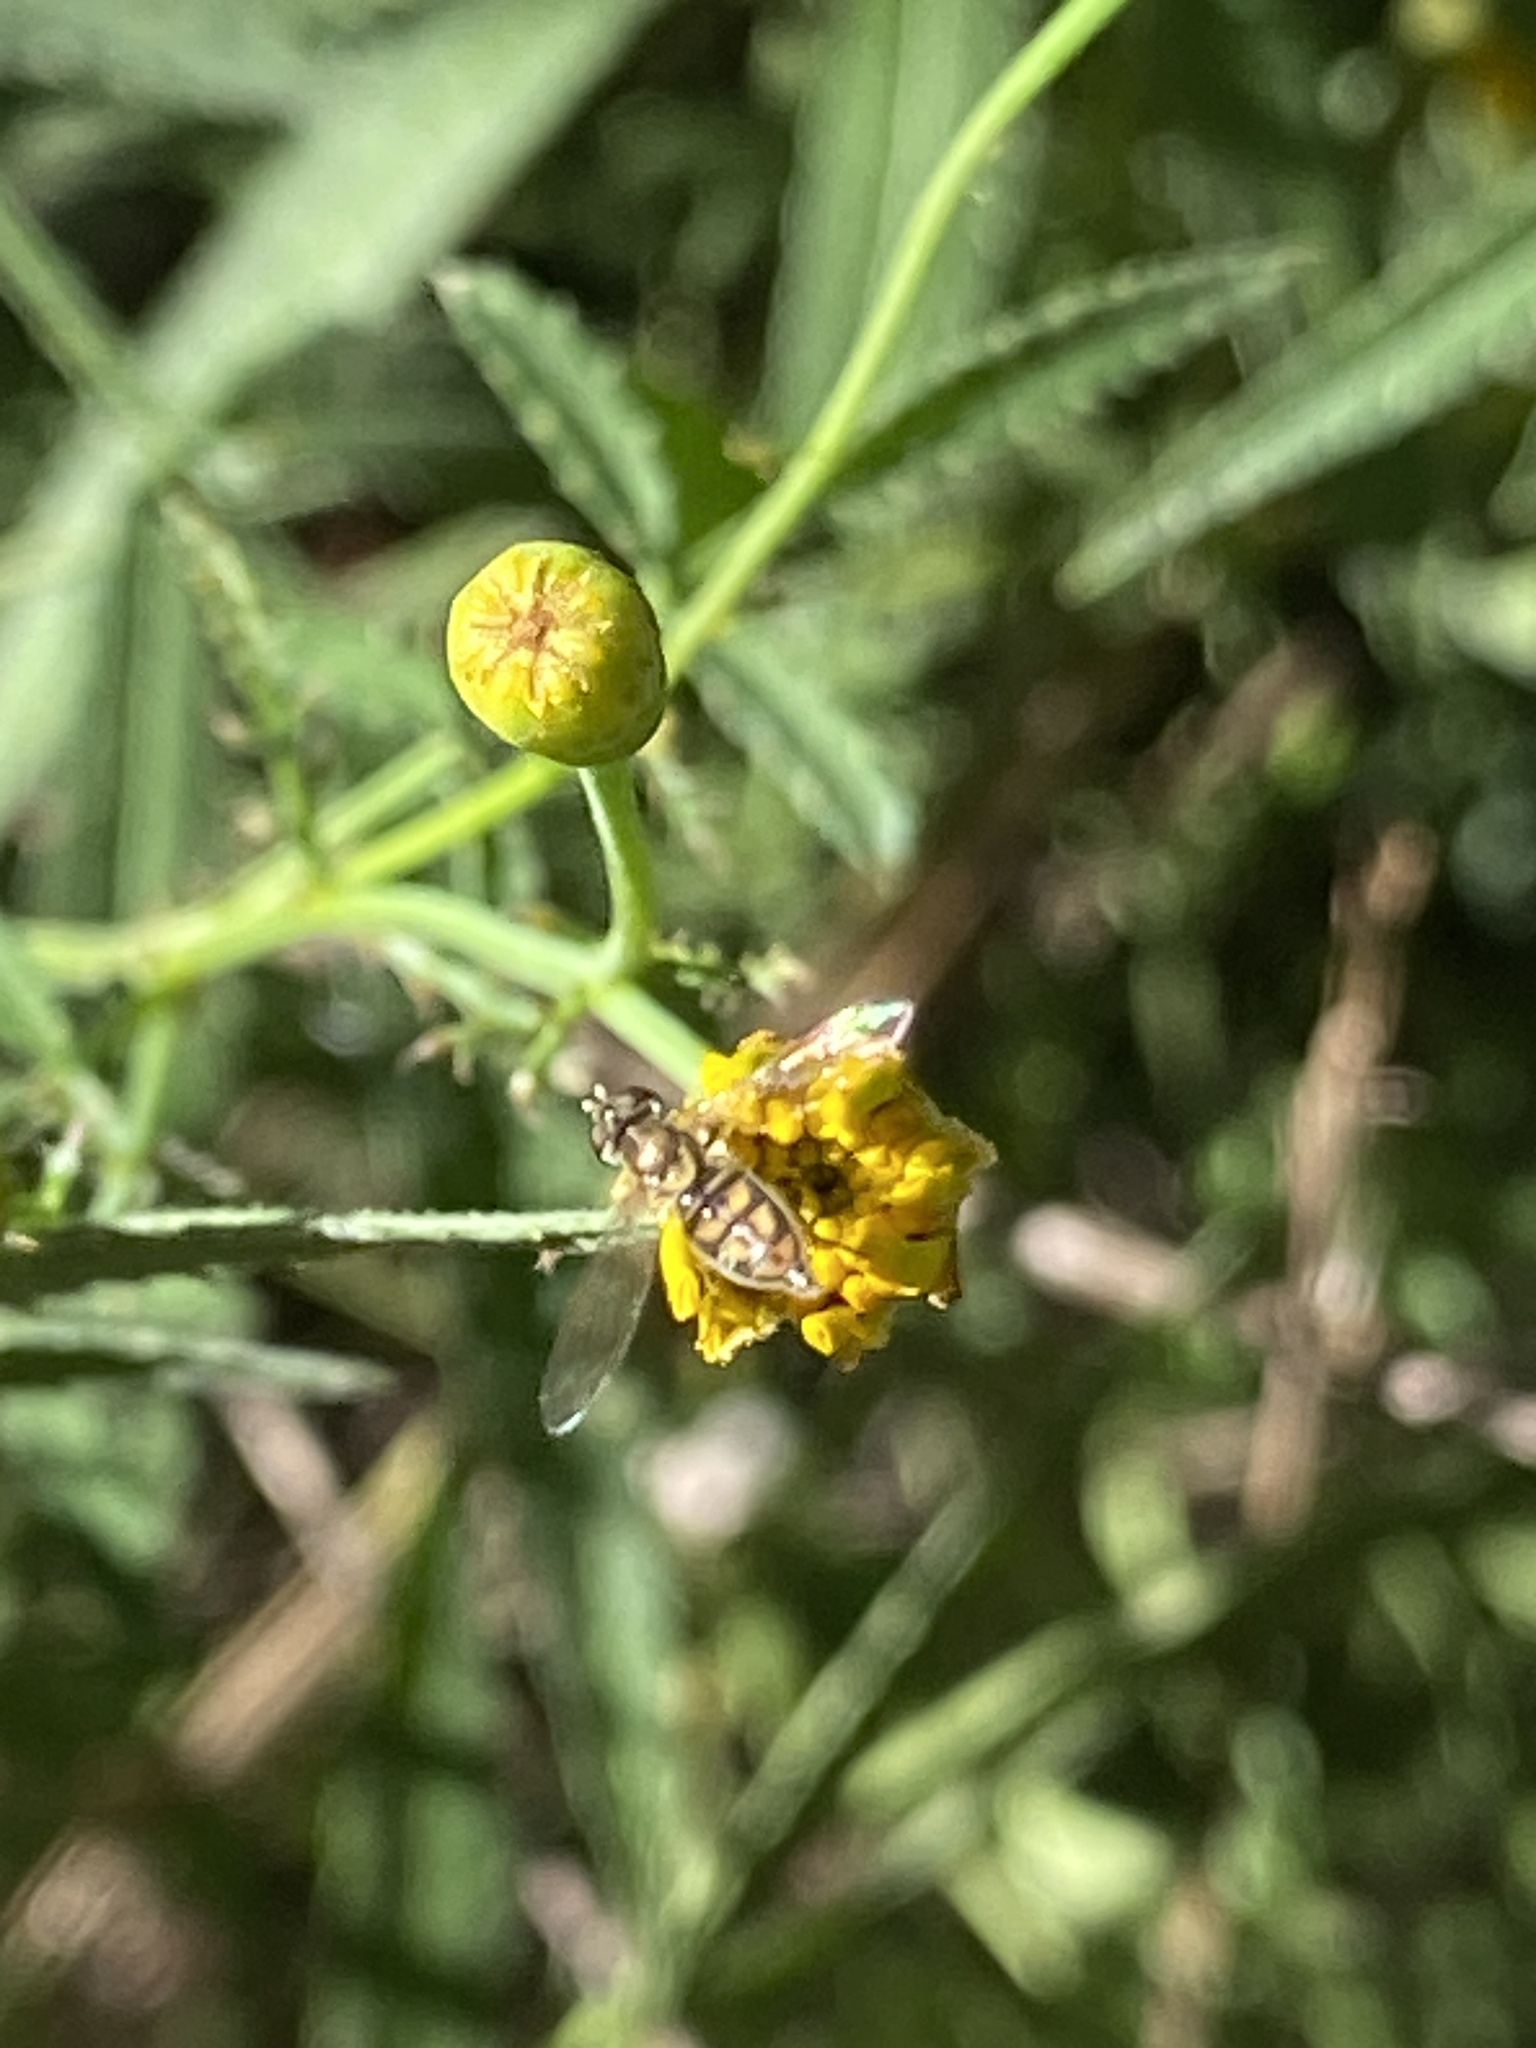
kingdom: Animalia
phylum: Arthropoda
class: Insecta
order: Diptera
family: Syrphidae
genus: Toxomerus
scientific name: Toxomerus marginatus
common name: Syrphid fly
